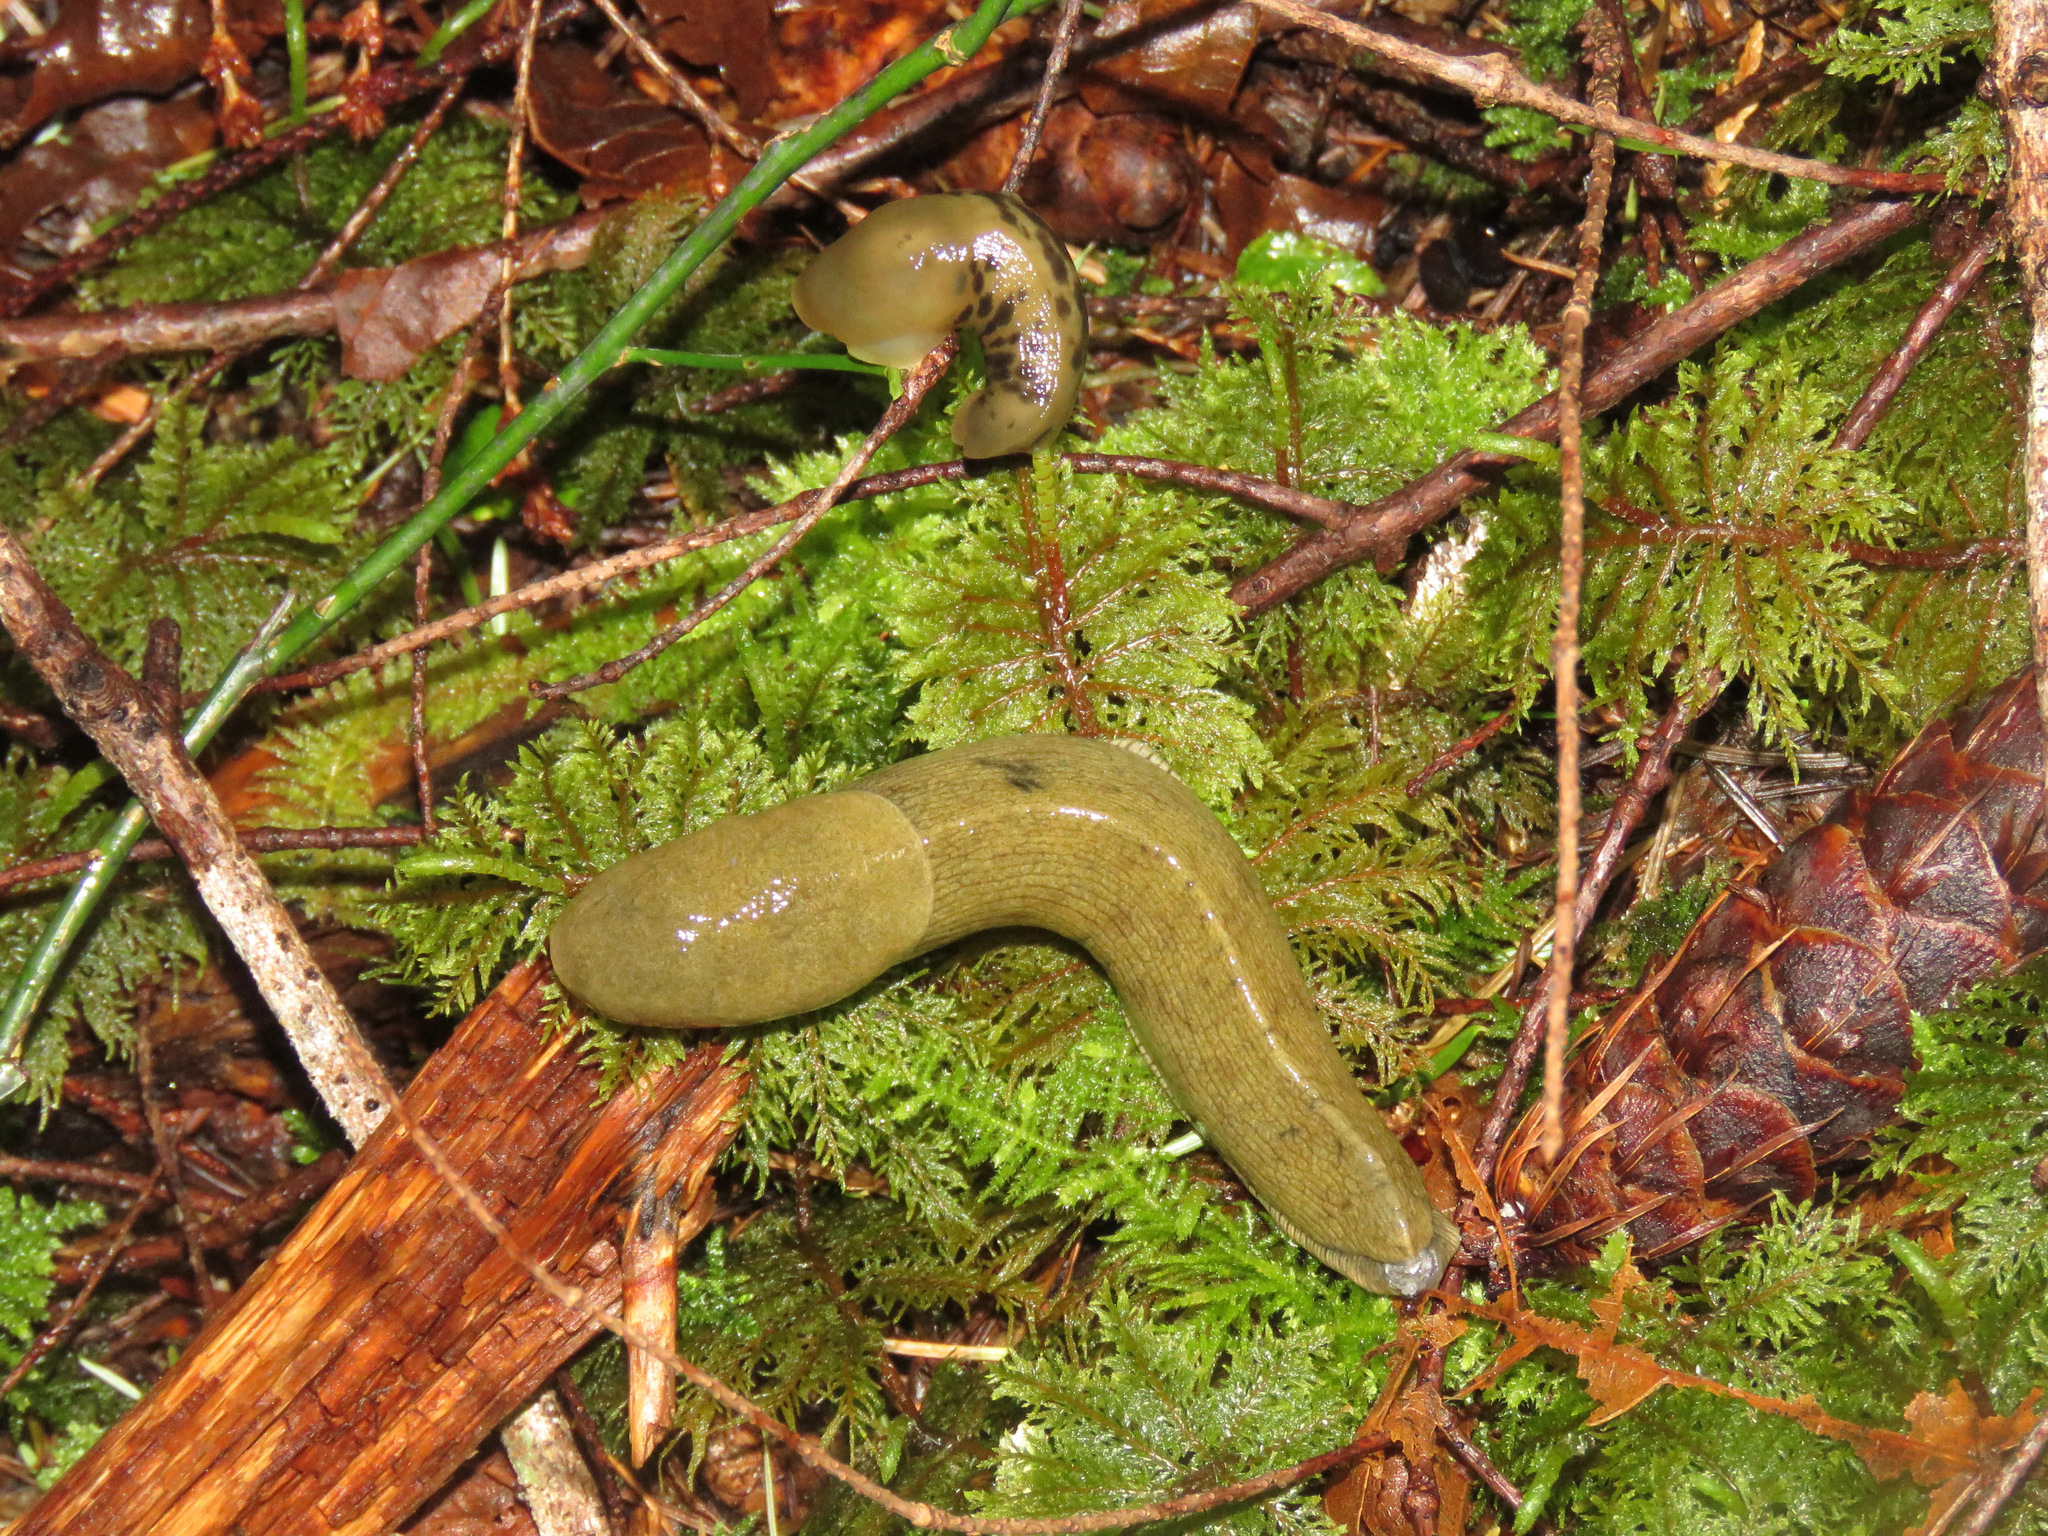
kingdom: Animalia
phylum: Mollusca
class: Gastropoda
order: Stylommatophora
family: Ariolimacidae
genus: Ariolimax
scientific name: Ariolimax columbianus
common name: Pacific banana slug
